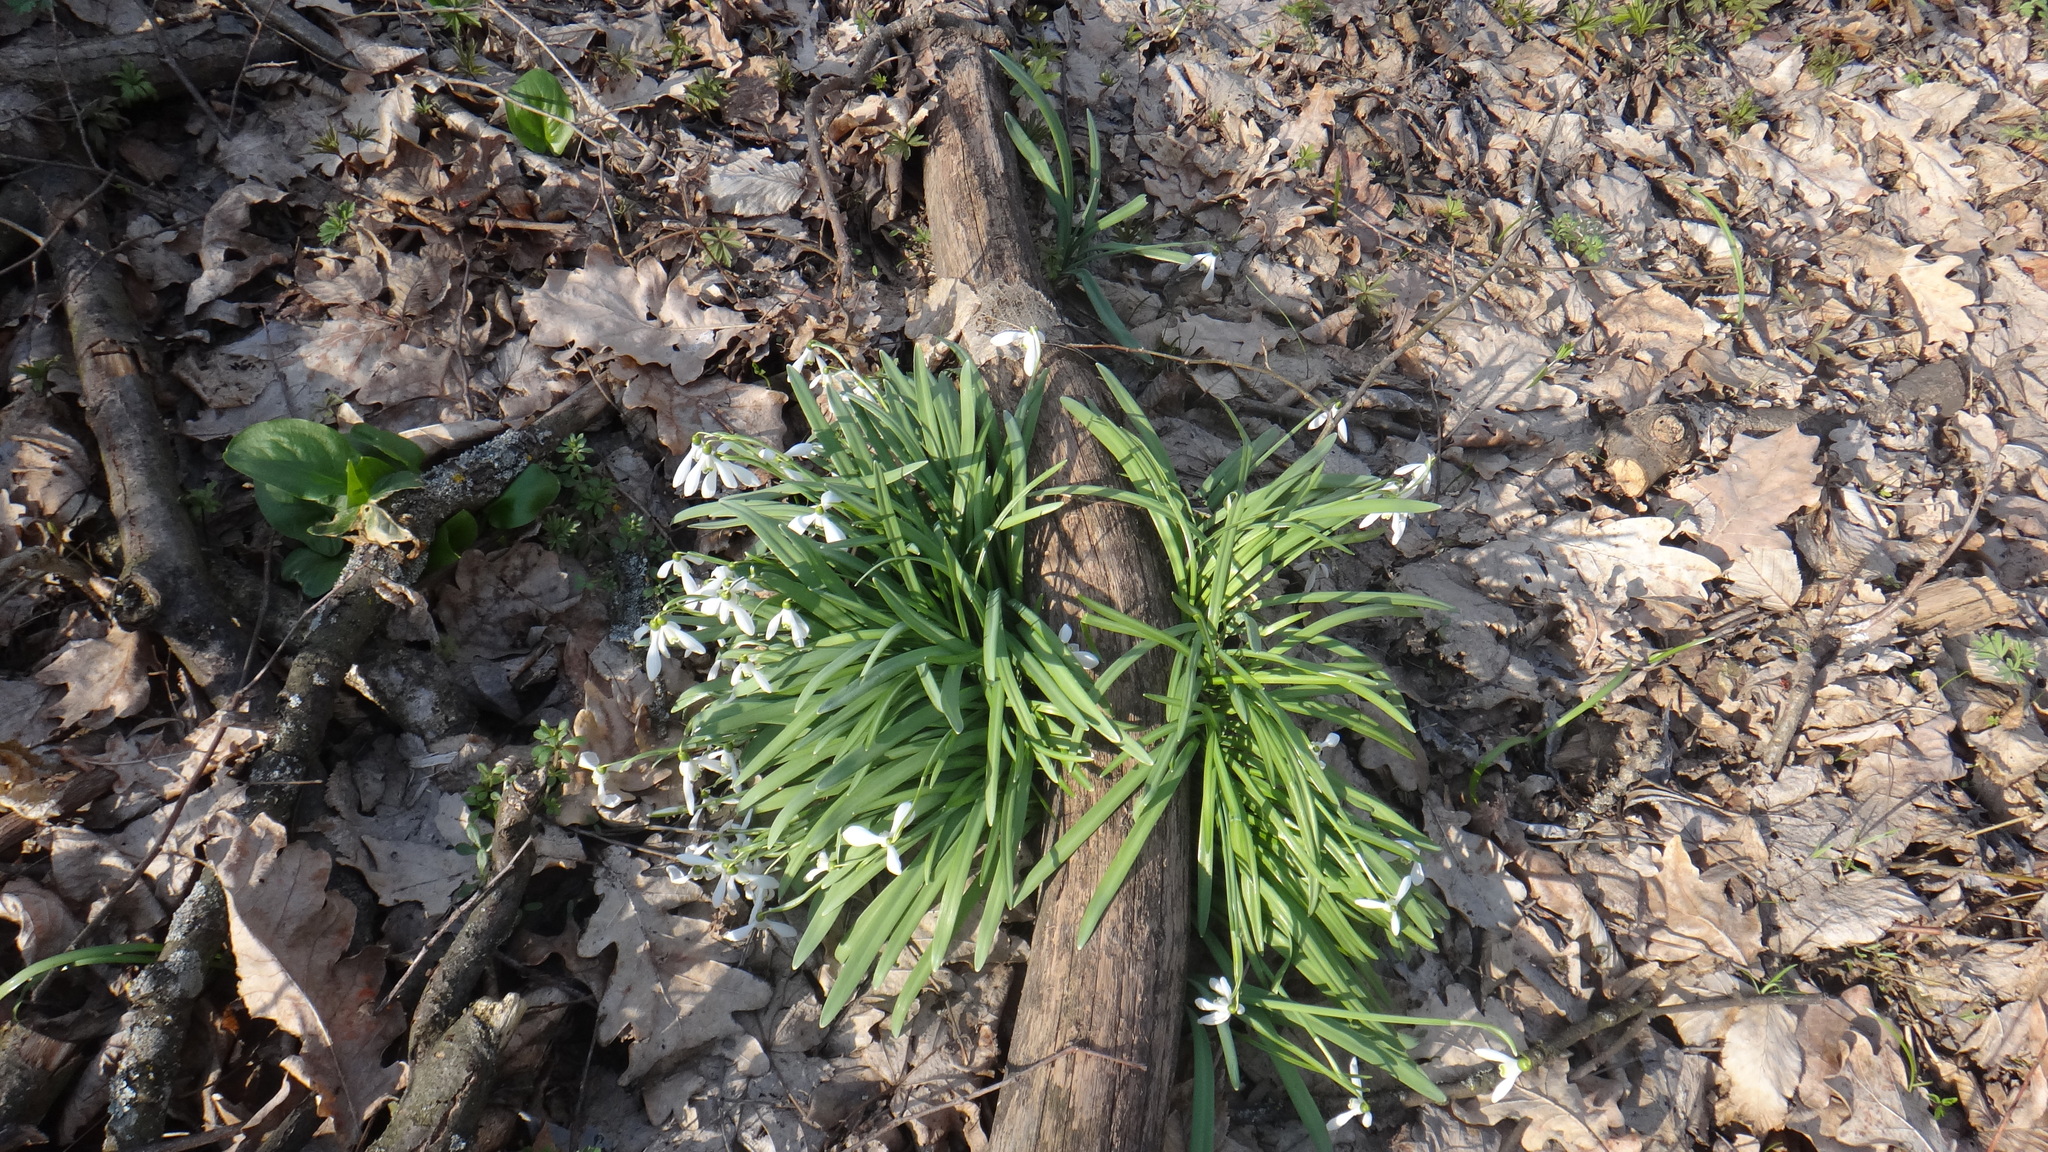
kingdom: Plantae
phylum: Tracheophyta
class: Liliopsida
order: Asparagales
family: Amaryllidaceae
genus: Galanthus
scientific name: Galanthus nivalis
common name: Snowdrop
